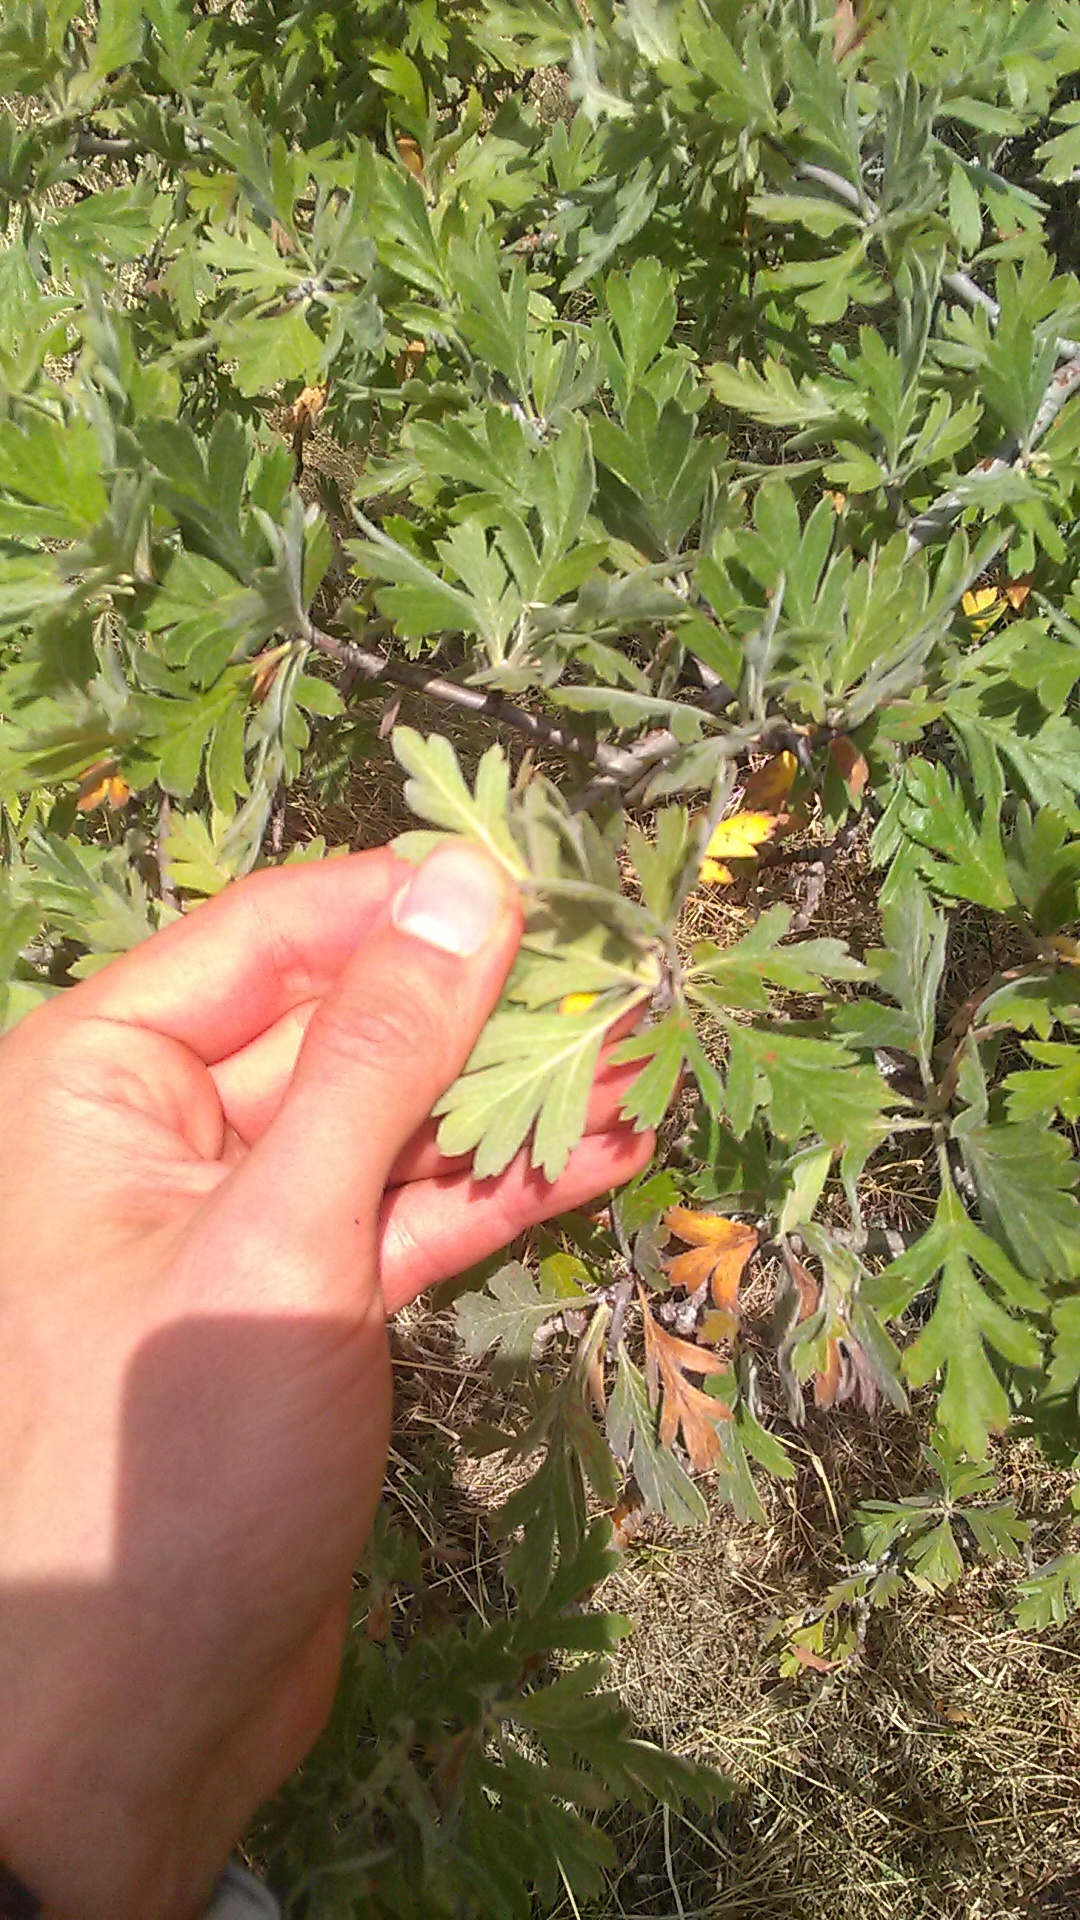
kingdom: Plantae
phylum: Tracheophyta
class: Magnoliopsida
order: Rosales
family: Rosaceae
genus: Crataegus
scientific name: Crataegus orientalis
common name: Oriental hawthorn
